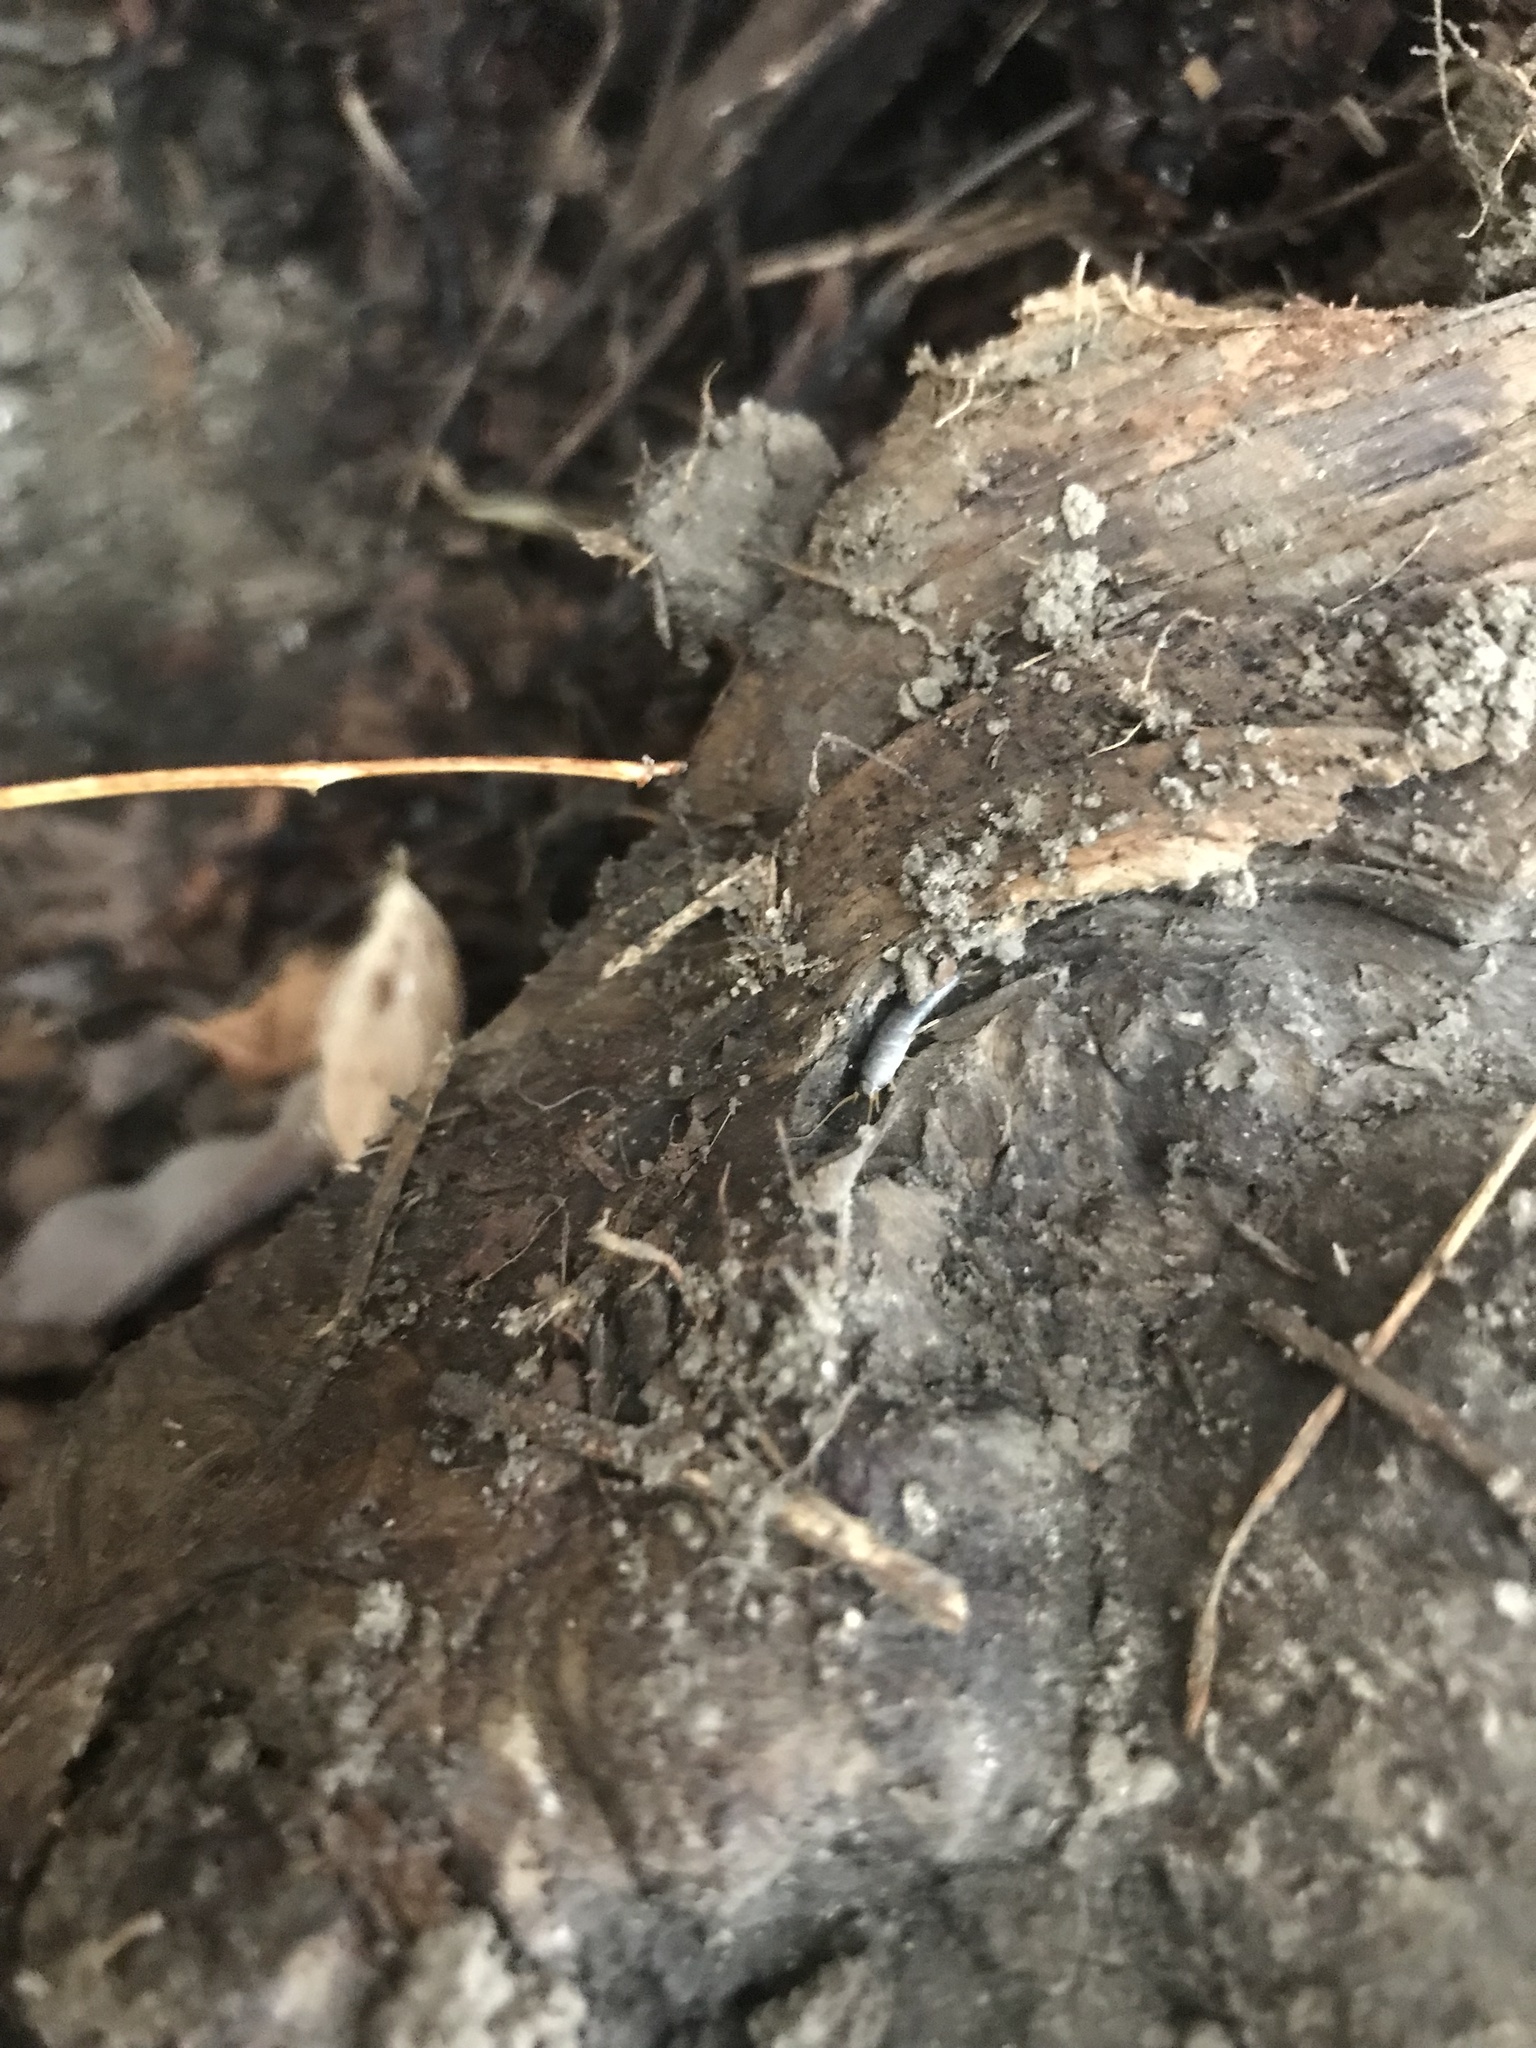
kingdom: Animalia
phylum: Arthropoda
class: Insecta
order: Zygentoma
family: Lepismatidae
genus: Lepisma
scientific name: Lepisma saccharinum
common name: Silverfish
